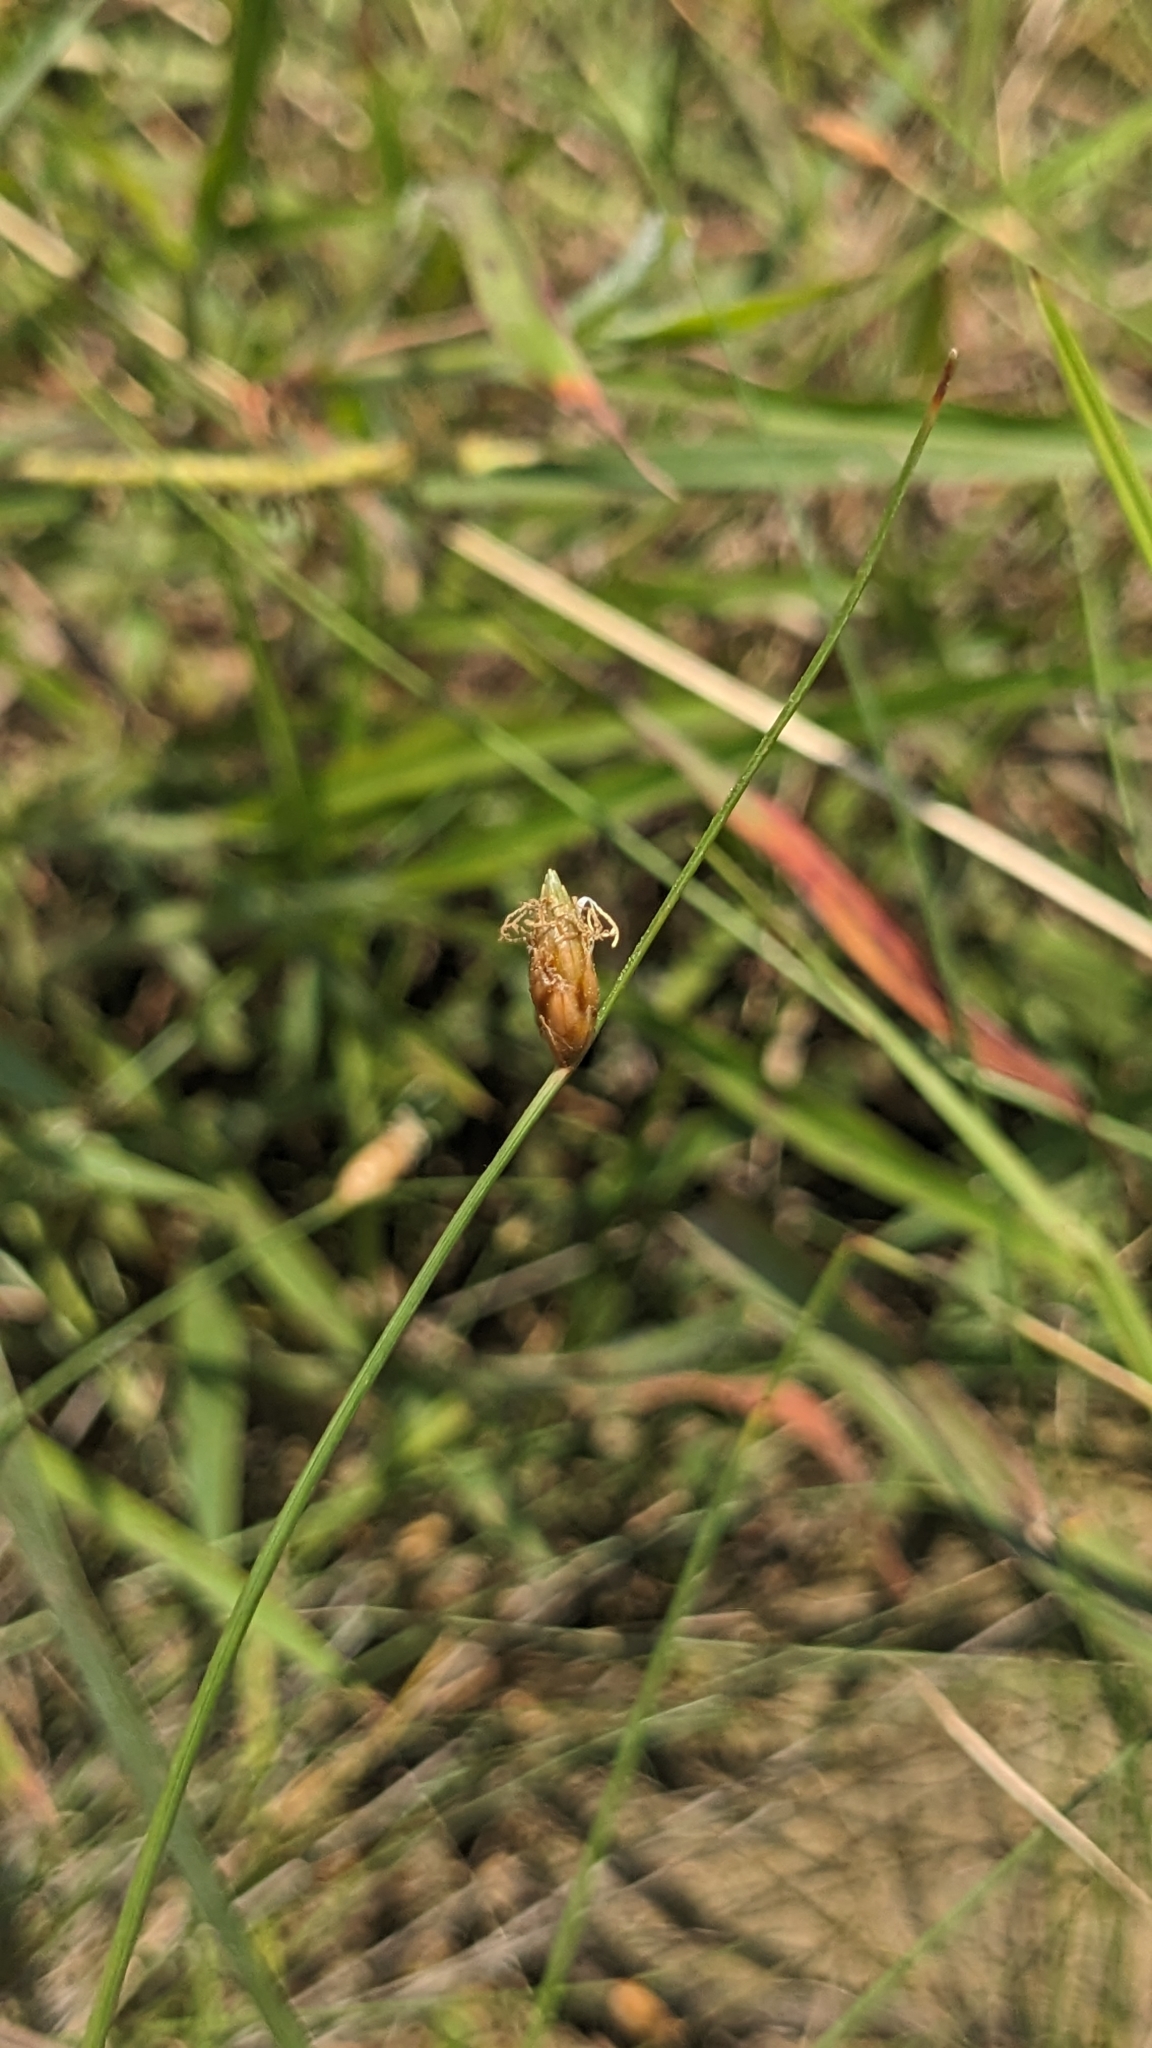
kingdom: Plantae
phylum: Tracheophyta
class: Liliopsida
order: Poales
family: Cyperaceae
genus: Fimbristylis
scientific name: Fimbristylis tristachya
